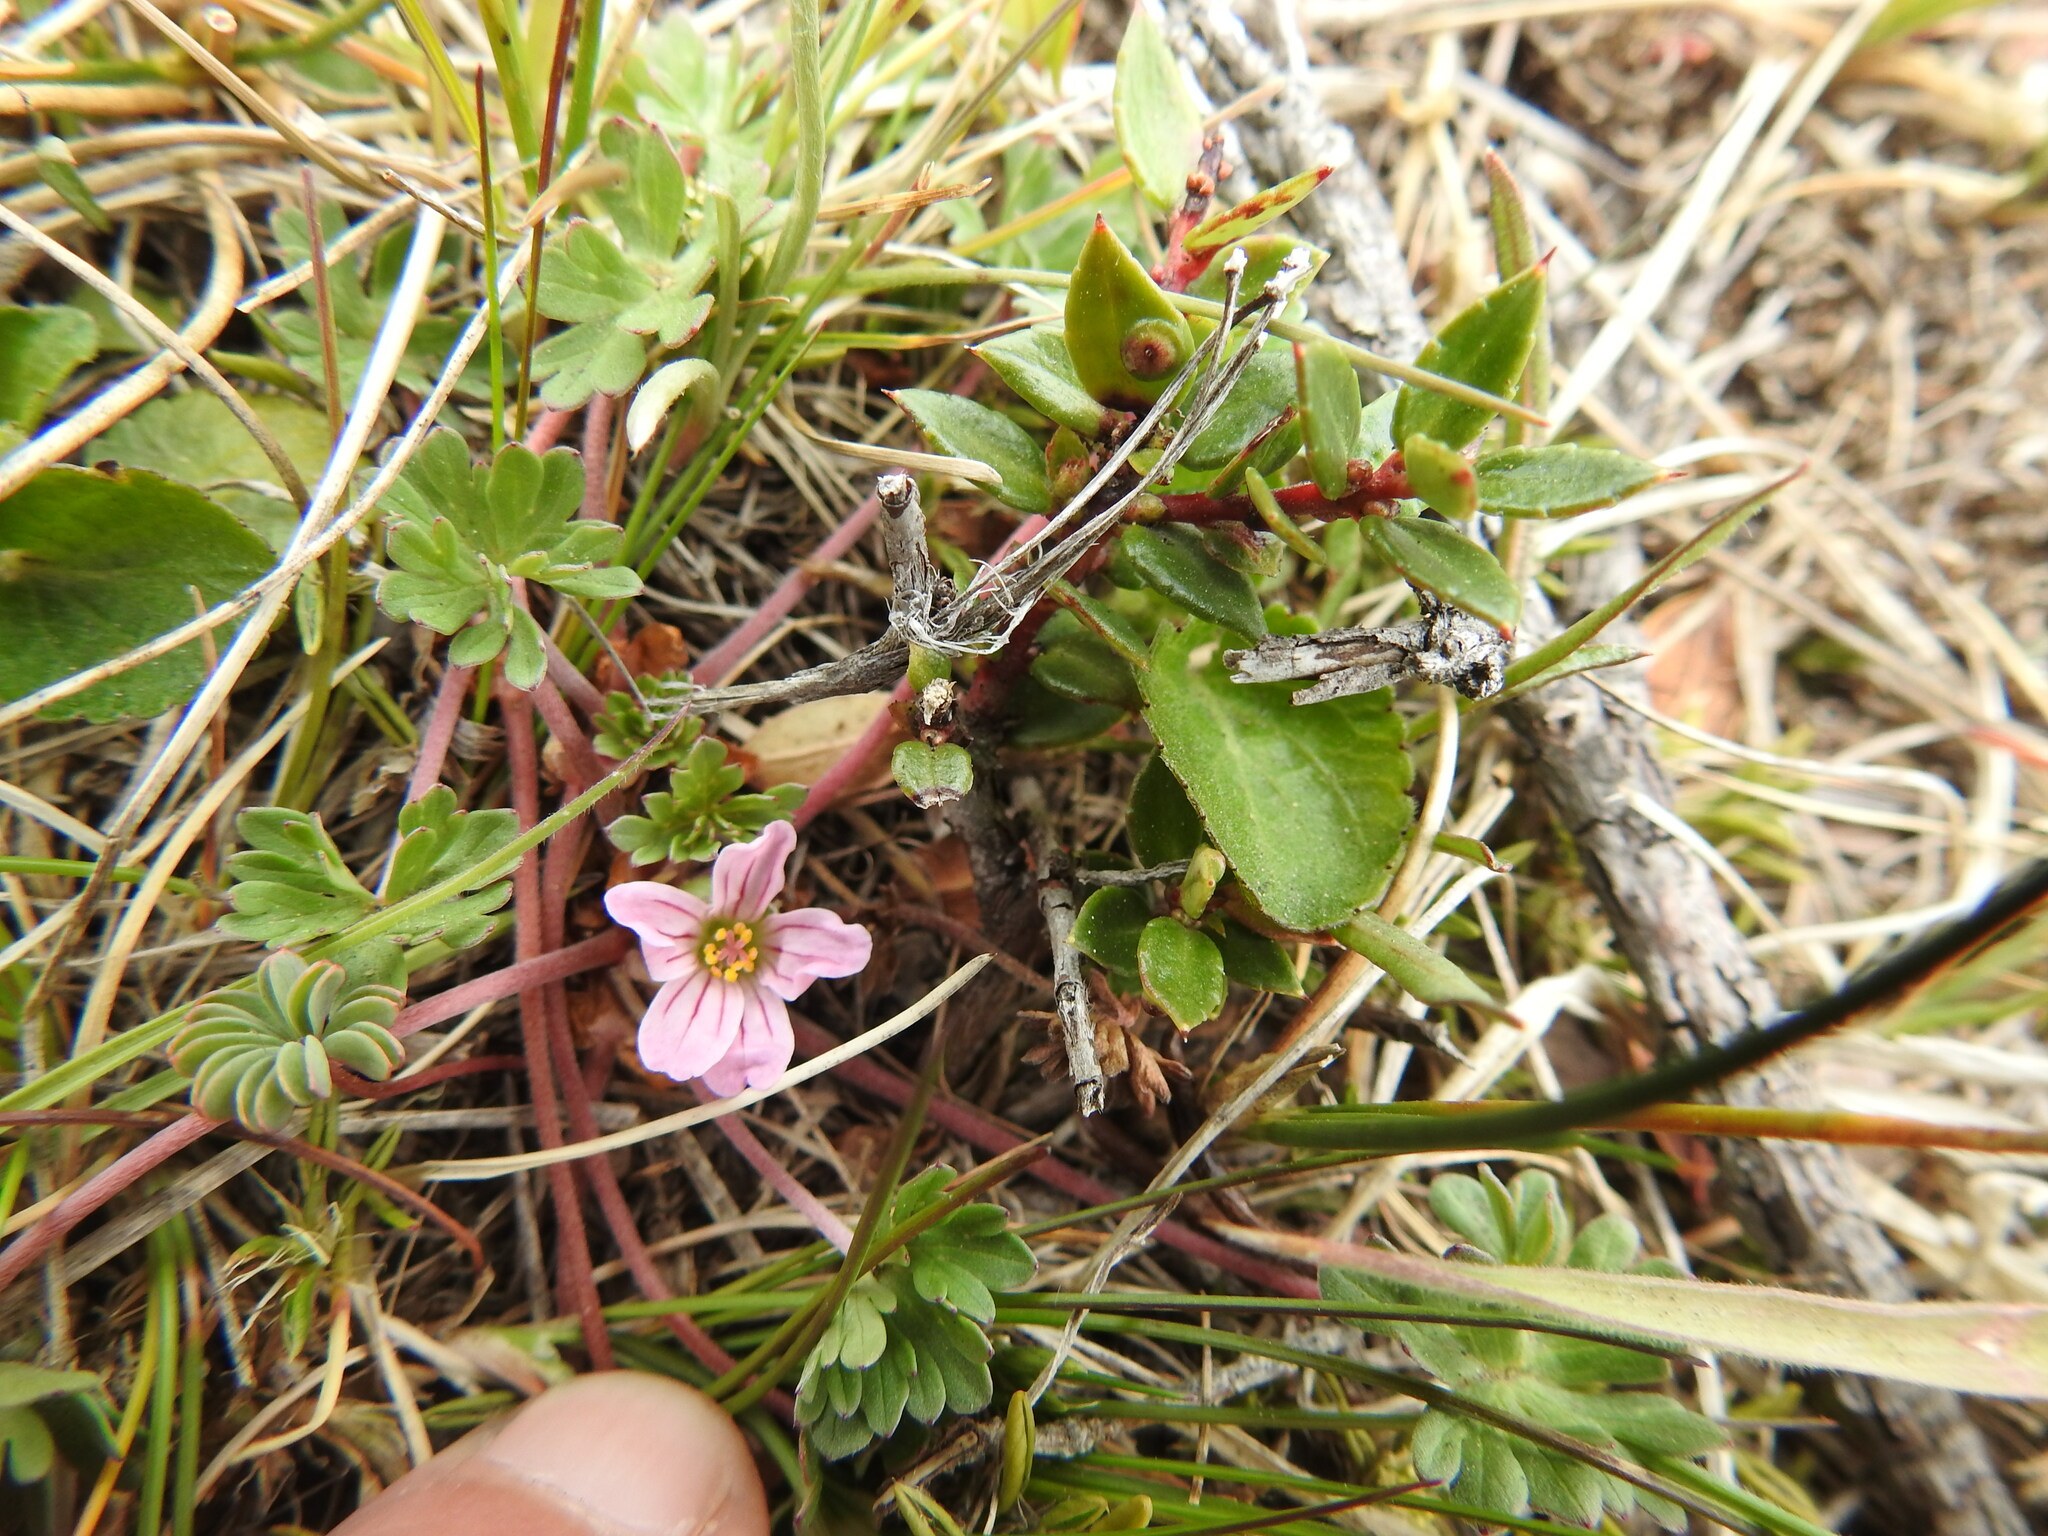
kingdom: Plantae
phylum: Tracheophyta
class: Magnoliopsida
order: Geraniales
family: Geraniaceae
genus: Geranium
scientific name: Geranium sessiliflorum
